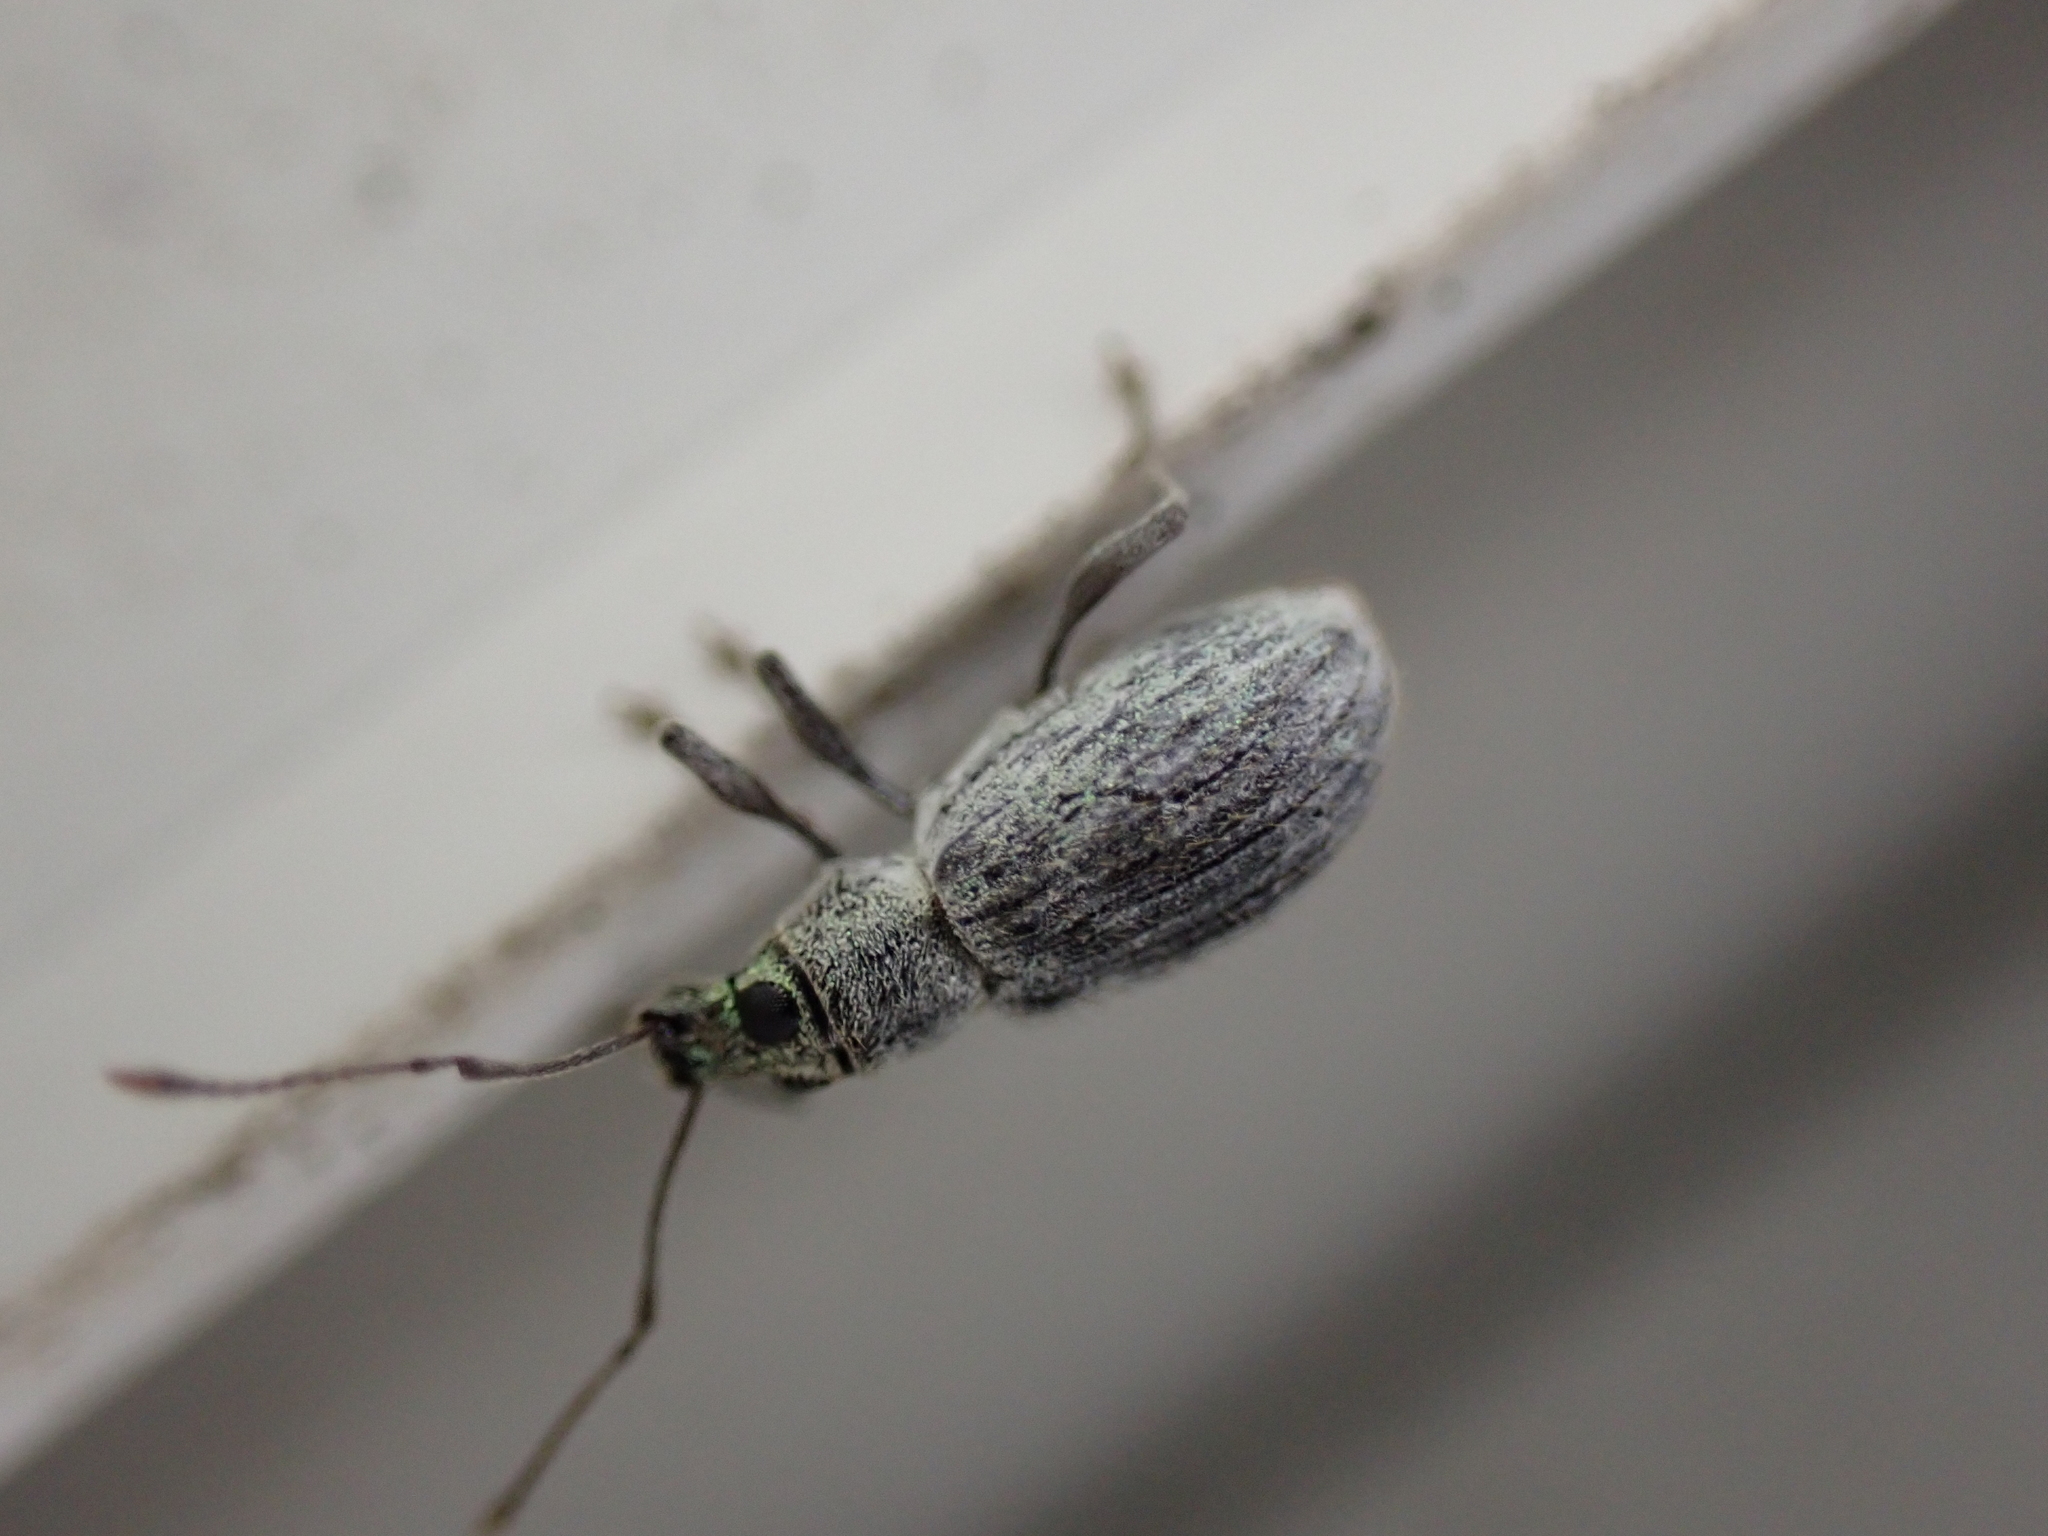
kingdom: Animalia
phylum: Arthropoda
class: Insecta
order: Coleoptera
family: Curculionidae
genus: Cyrtepistomus
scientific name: Cyrtepistomus castaneus
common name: Weevil
